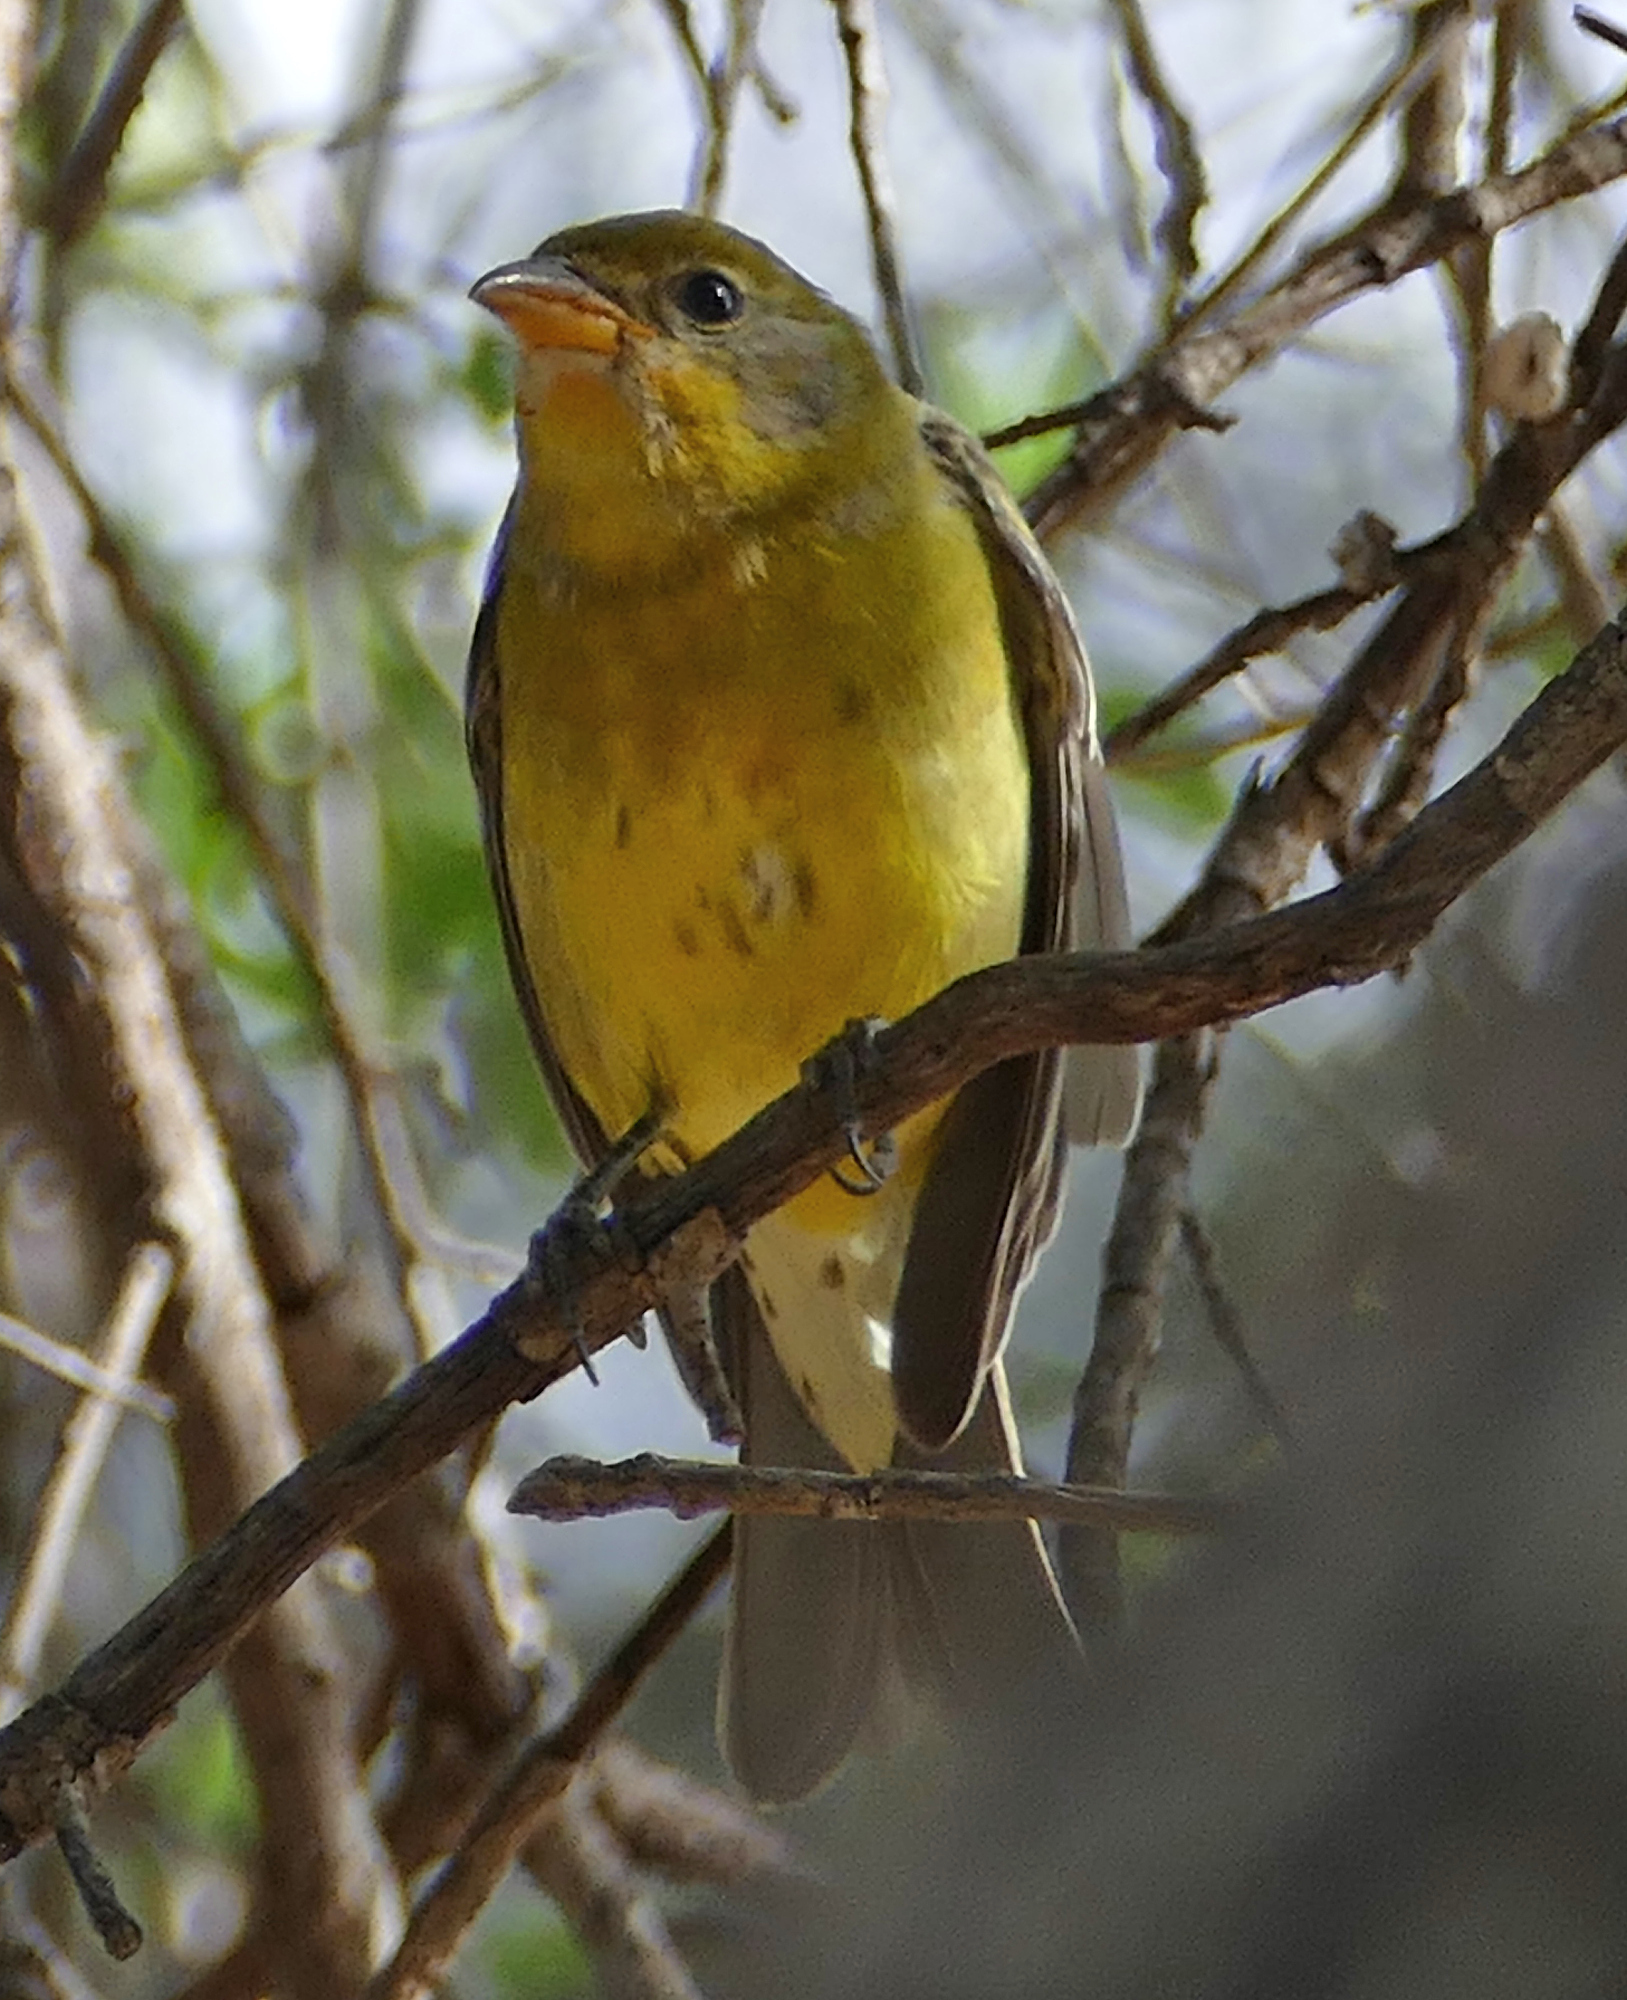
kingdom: Animalia
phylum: Chordata
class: Aves
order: Passeriformes
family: Cardinalidae
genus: Piranga
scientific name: Piranga ludoviciana
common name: Western tanager
